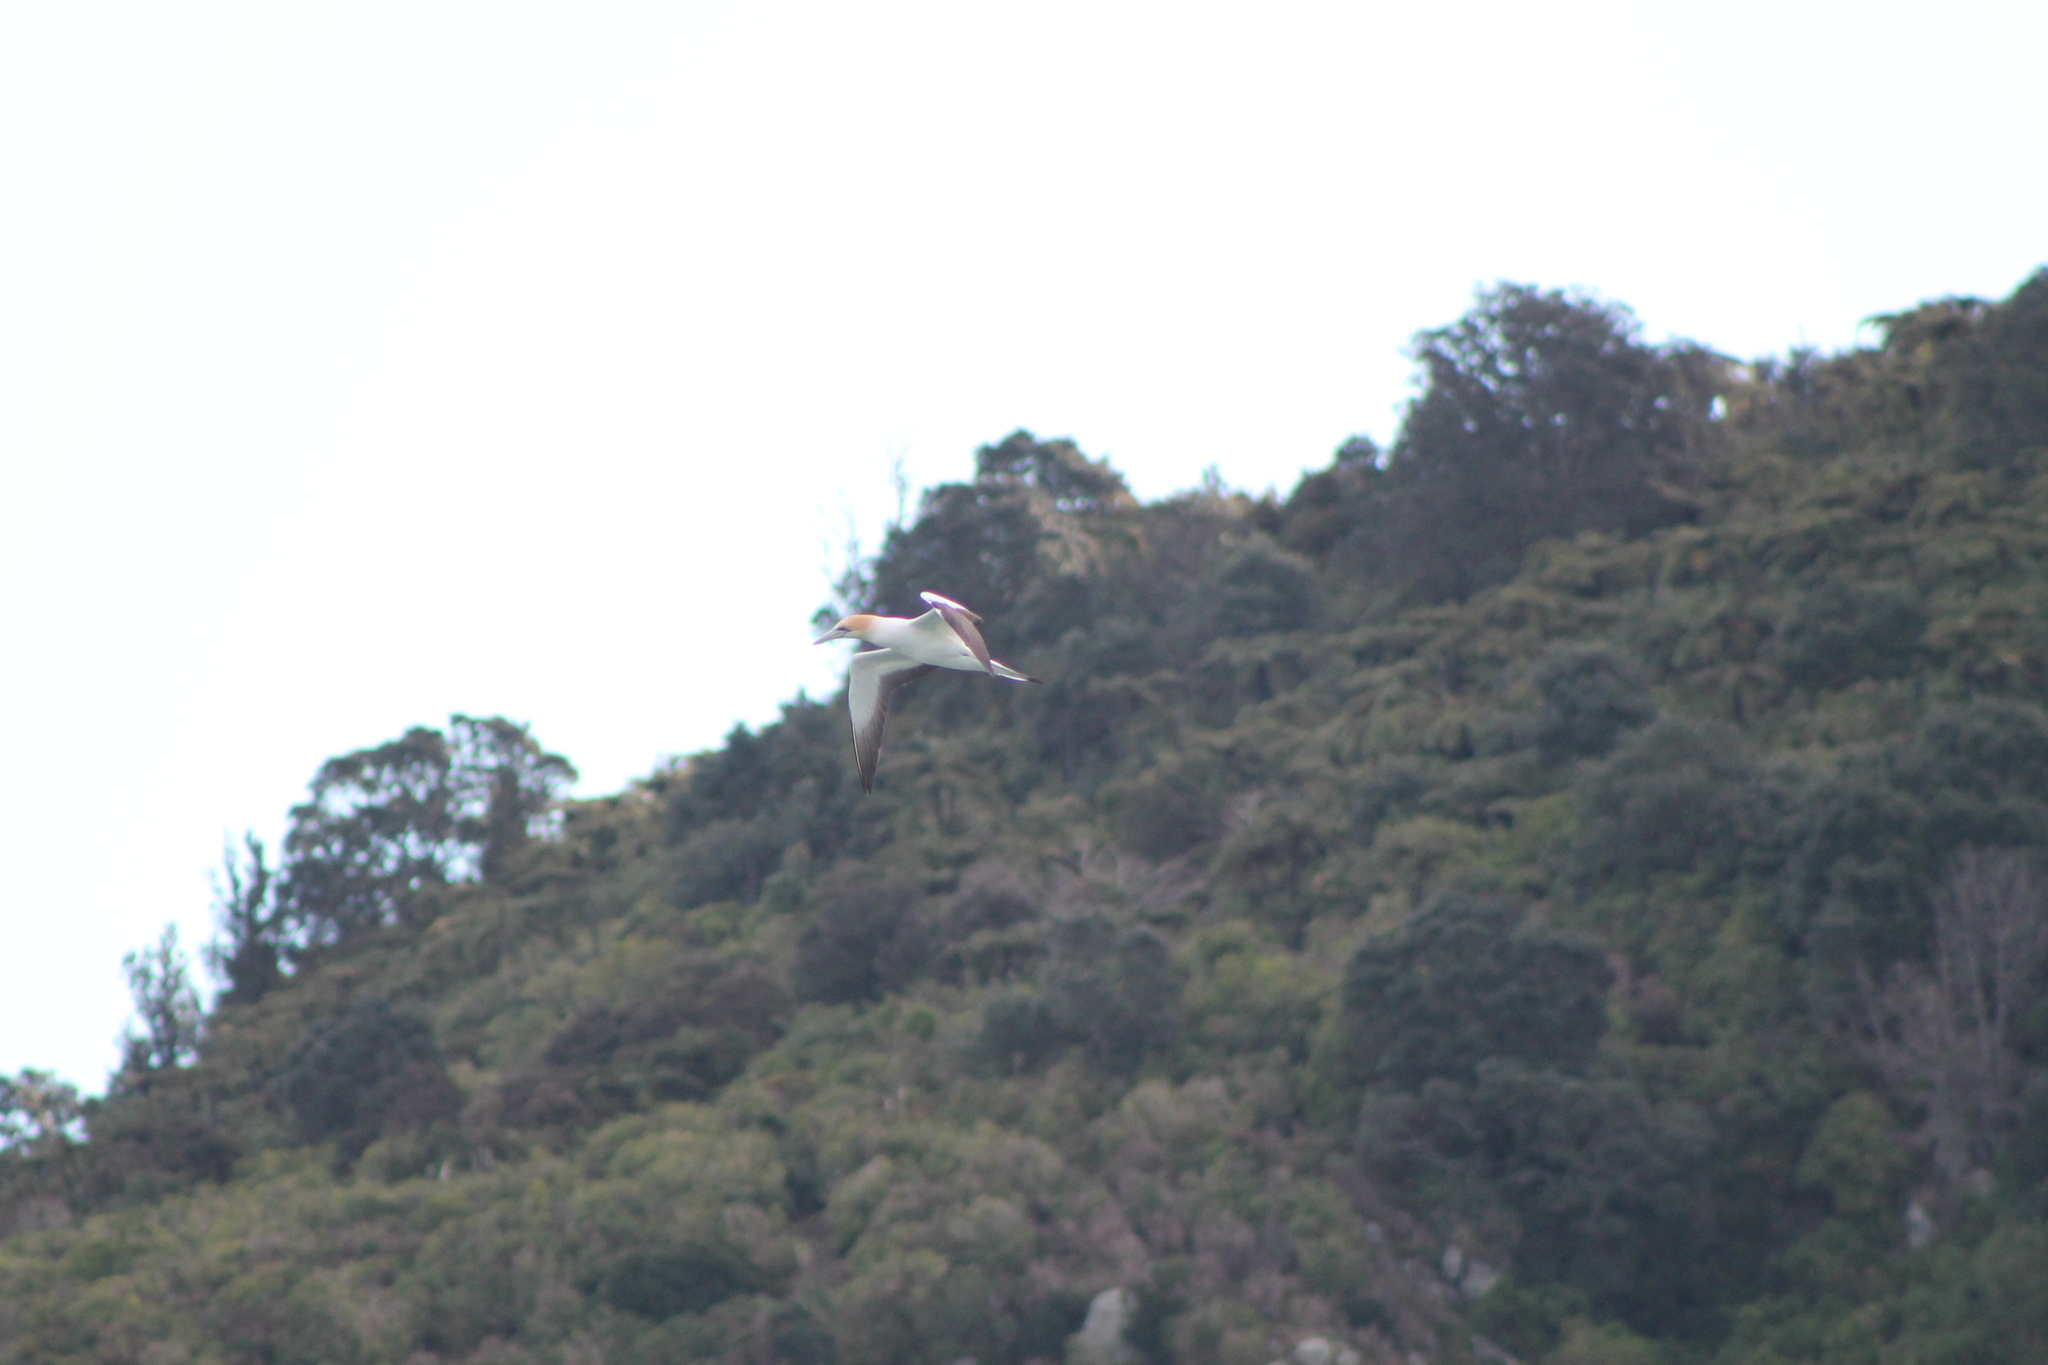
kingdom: Animalia
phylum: Chordata
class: Aves
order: Suliformes
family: Sulidae
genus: Morus
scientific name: Morus serrator
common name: Australasian gannet
